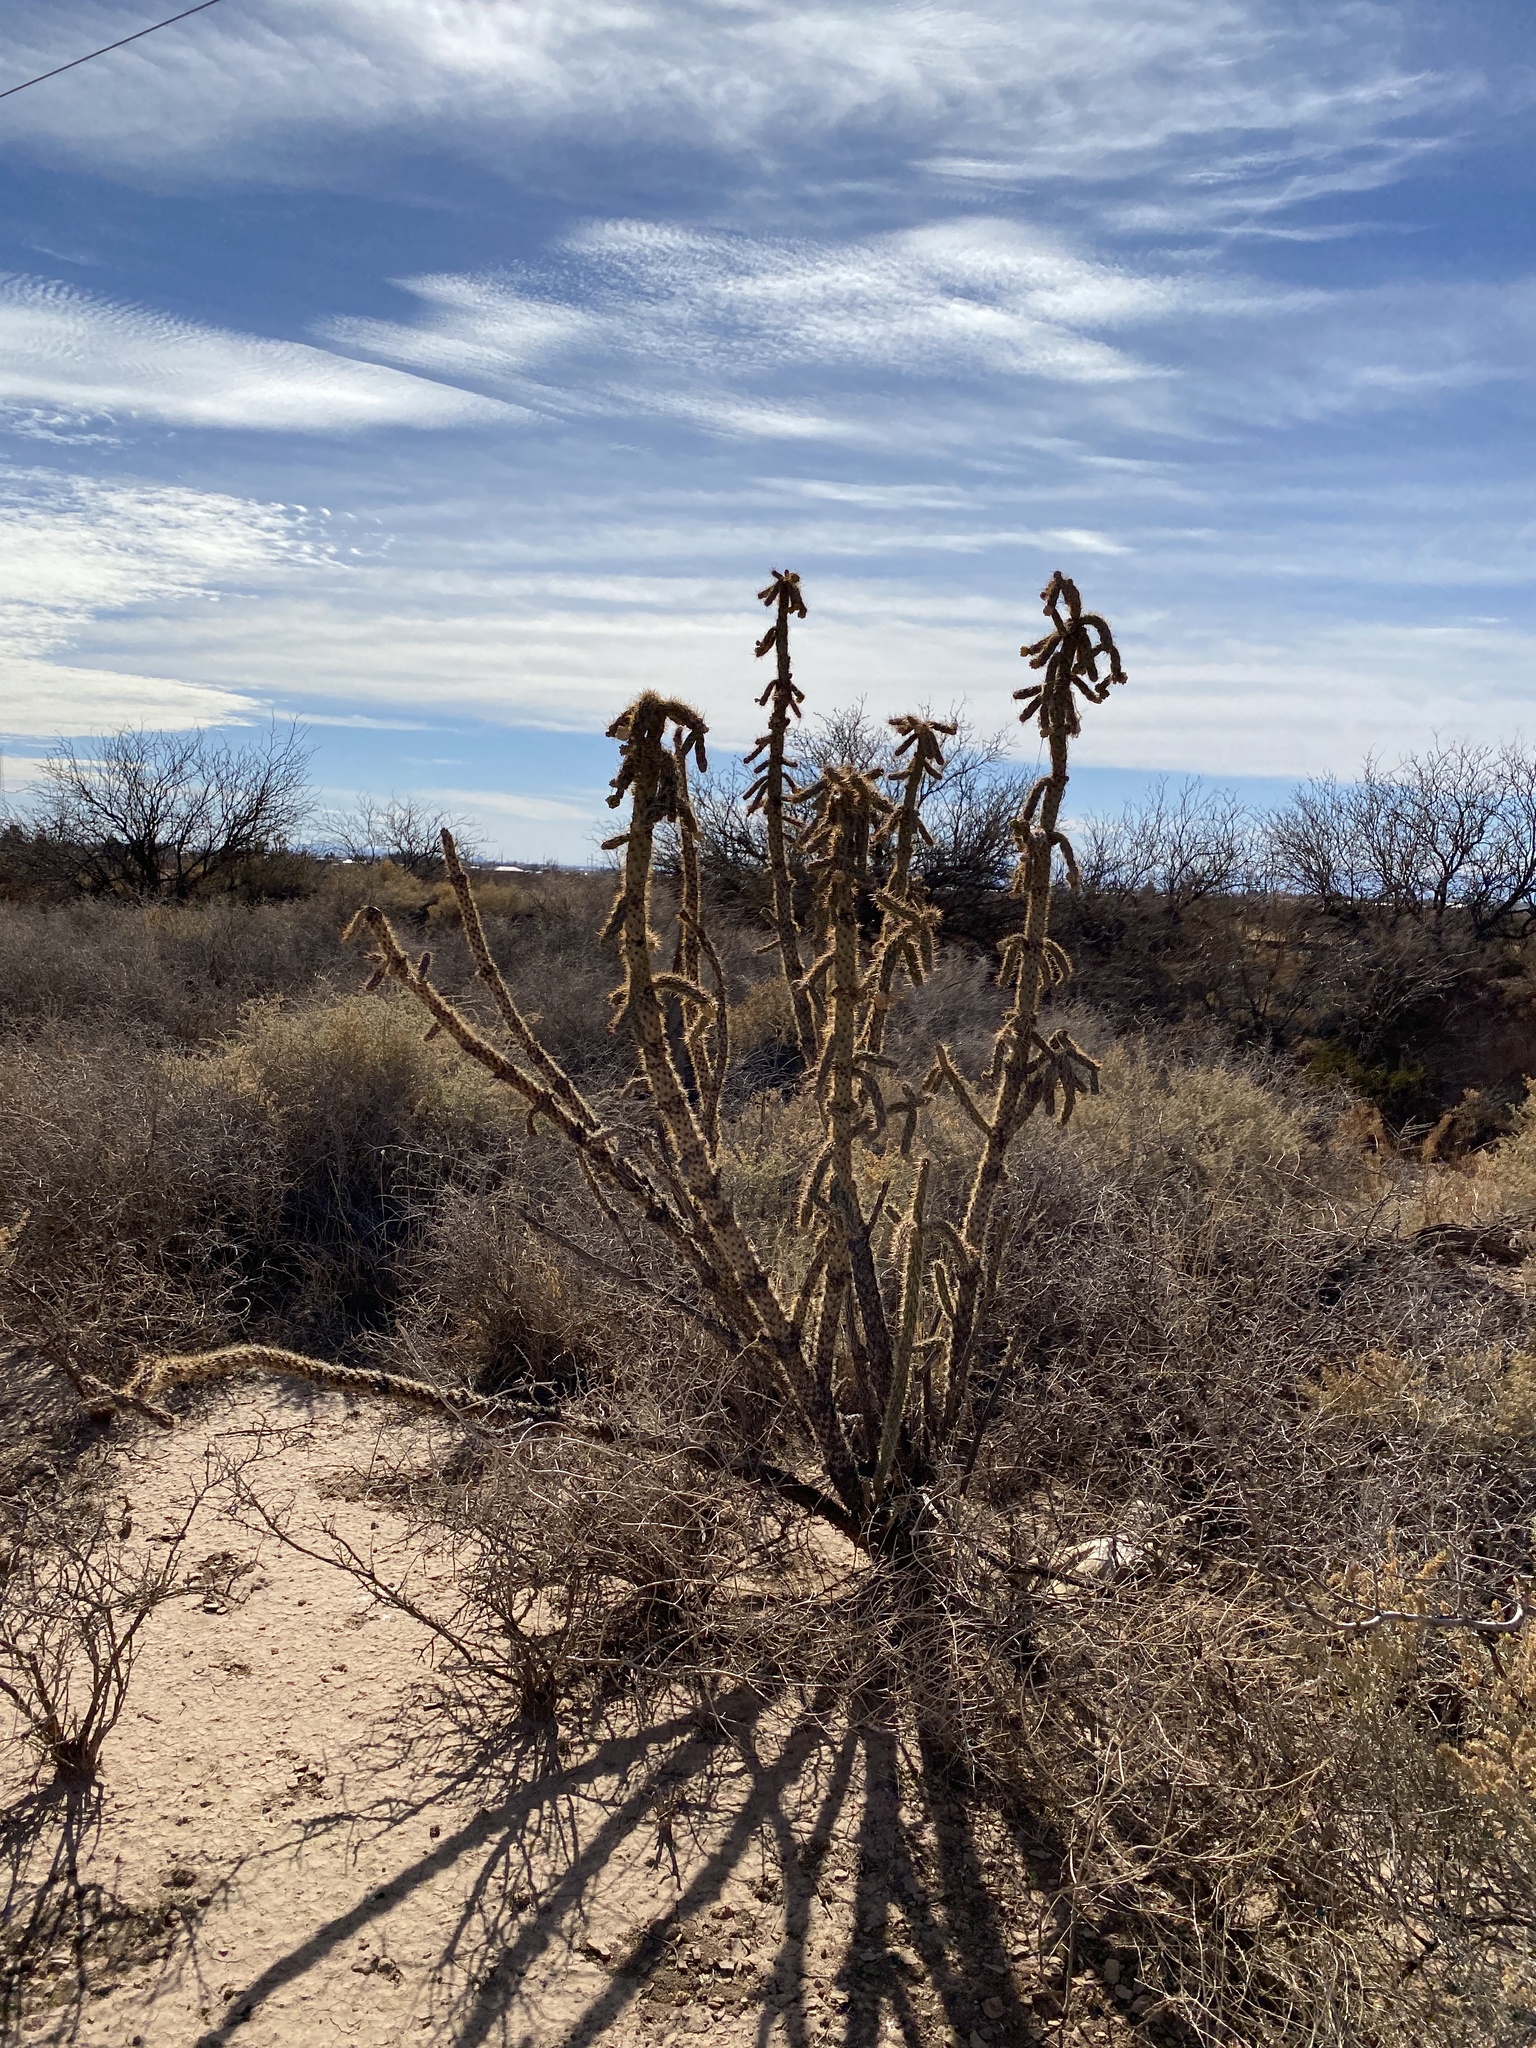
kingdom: Plantae
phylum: Tracheophyta
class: Magnoliopsida
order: Caryophyllales
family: Cactaceae
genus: Cylindropuntia
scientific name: Cylindropuntia imbricata
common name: Candelabrum cactus
